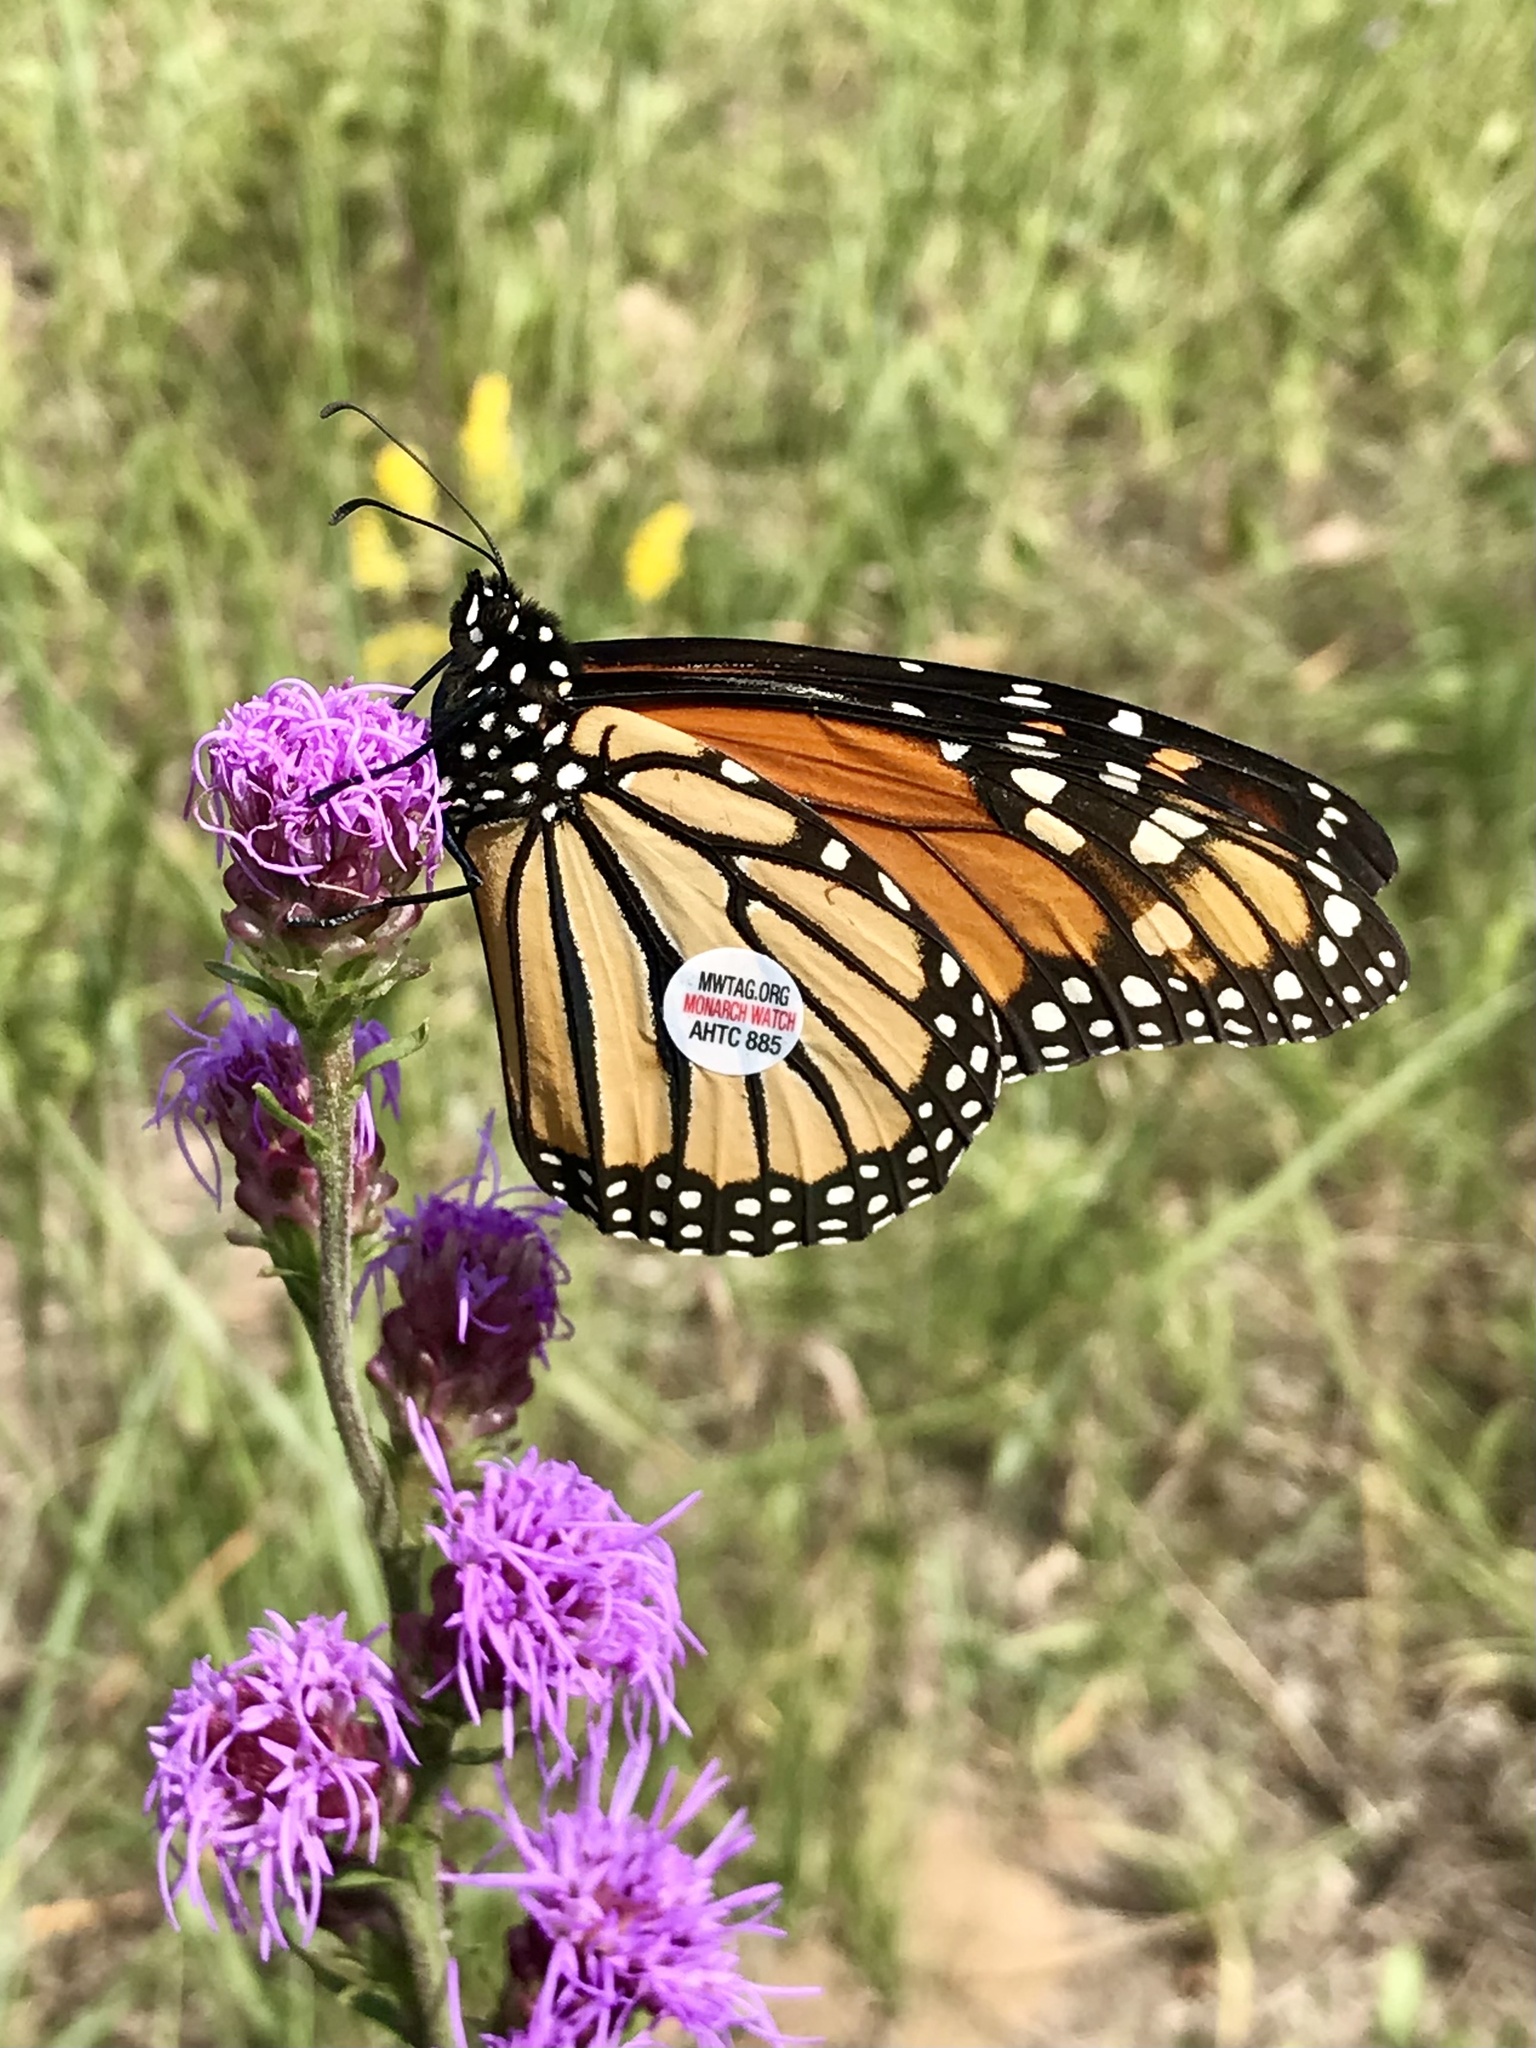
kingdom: Animalia
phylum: Arthropoda
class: Insecta
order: Lepidoptera
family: Nymphalidae
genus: Danaus
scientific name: Danaus plexippus
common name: Monarch
